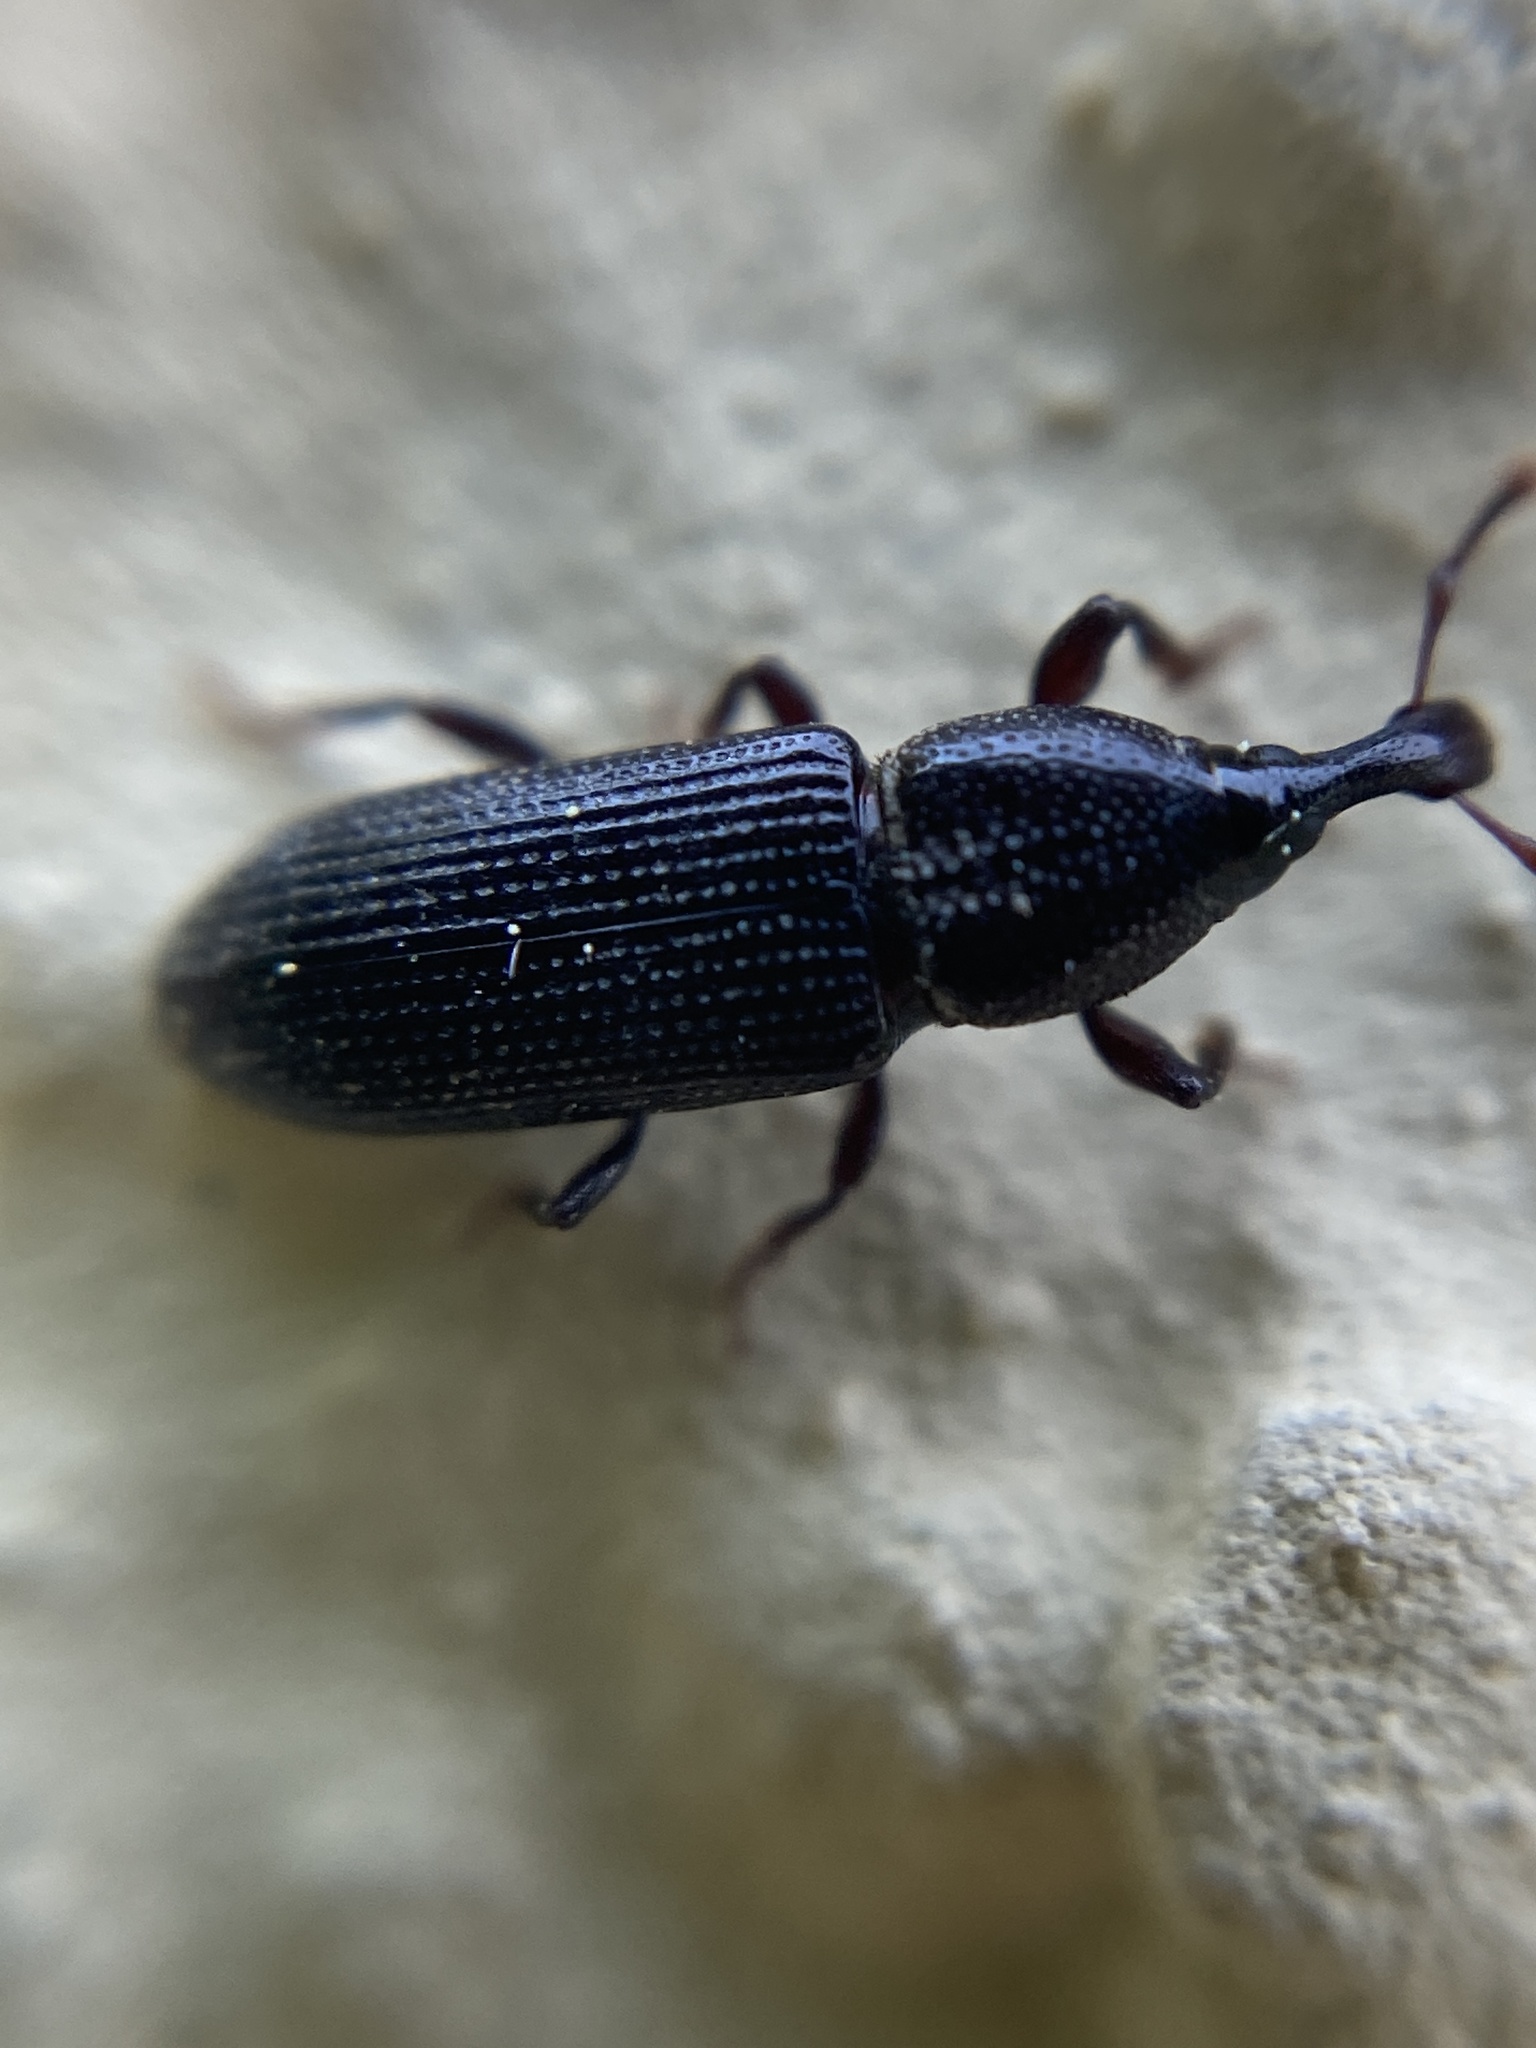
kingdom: Animalia
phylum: Arthropoda
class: Insecta
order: Coleoptera
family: Curculionidae
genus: Cossonus
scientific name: Cossonus linearis
